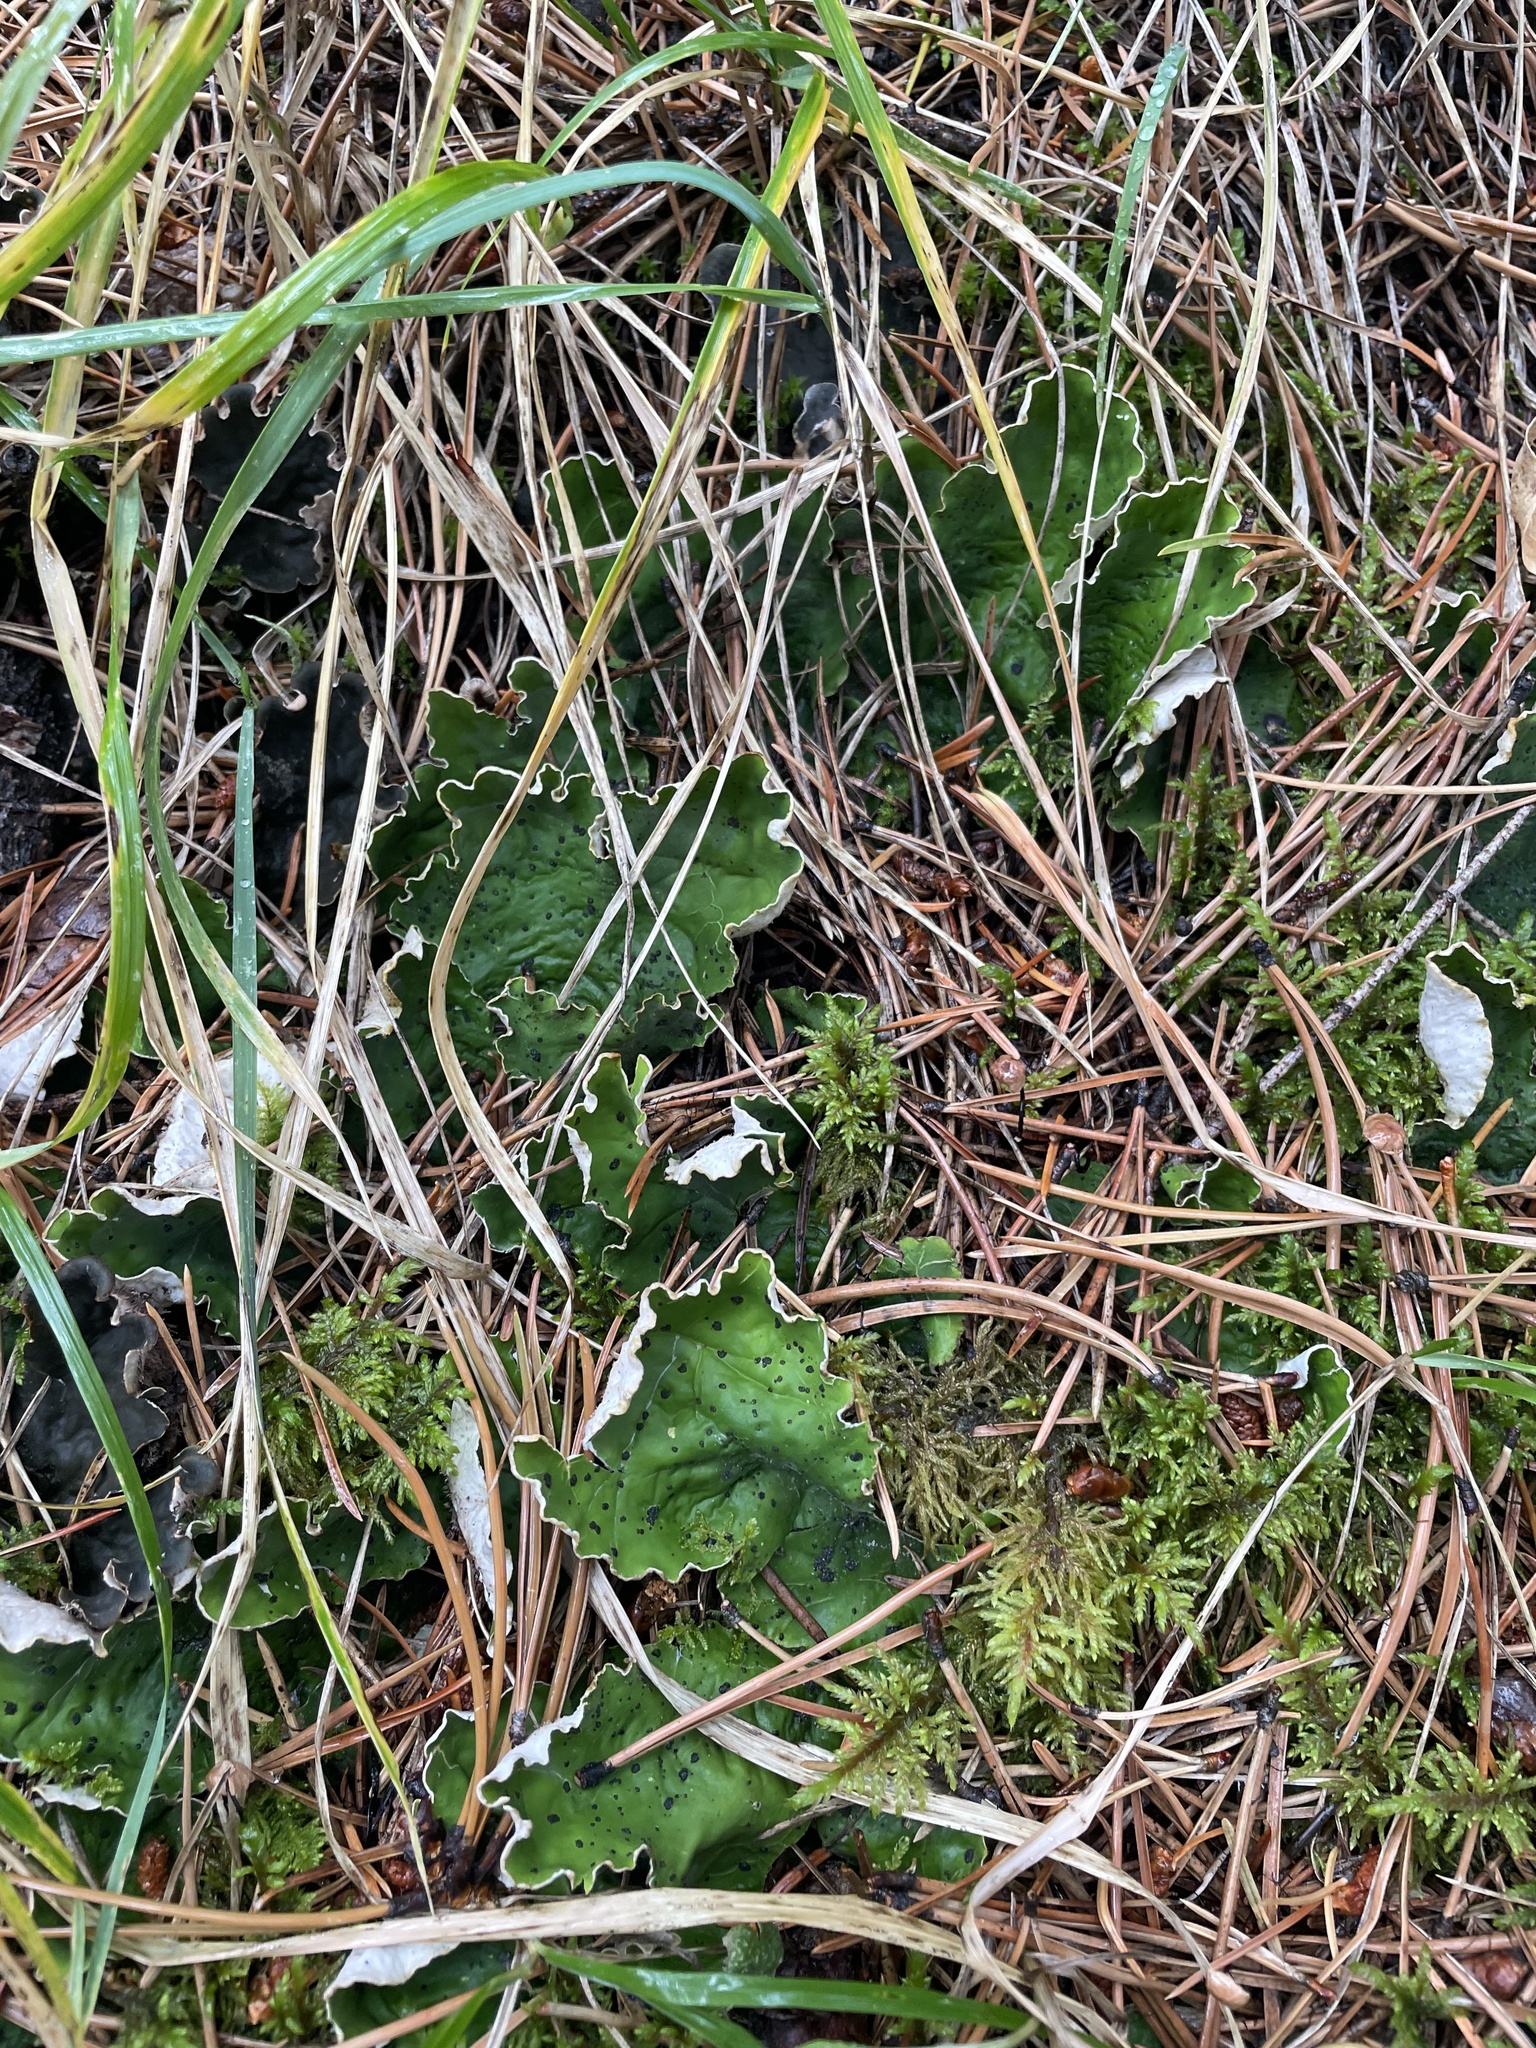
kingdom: Fungi
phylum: Ascomycota
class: Lecanoromycetes
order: Peltigerales
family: Peltigeraceae
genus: Peltigera
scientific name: Peltigera aphthosa
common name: Common freckle pelt lichen
